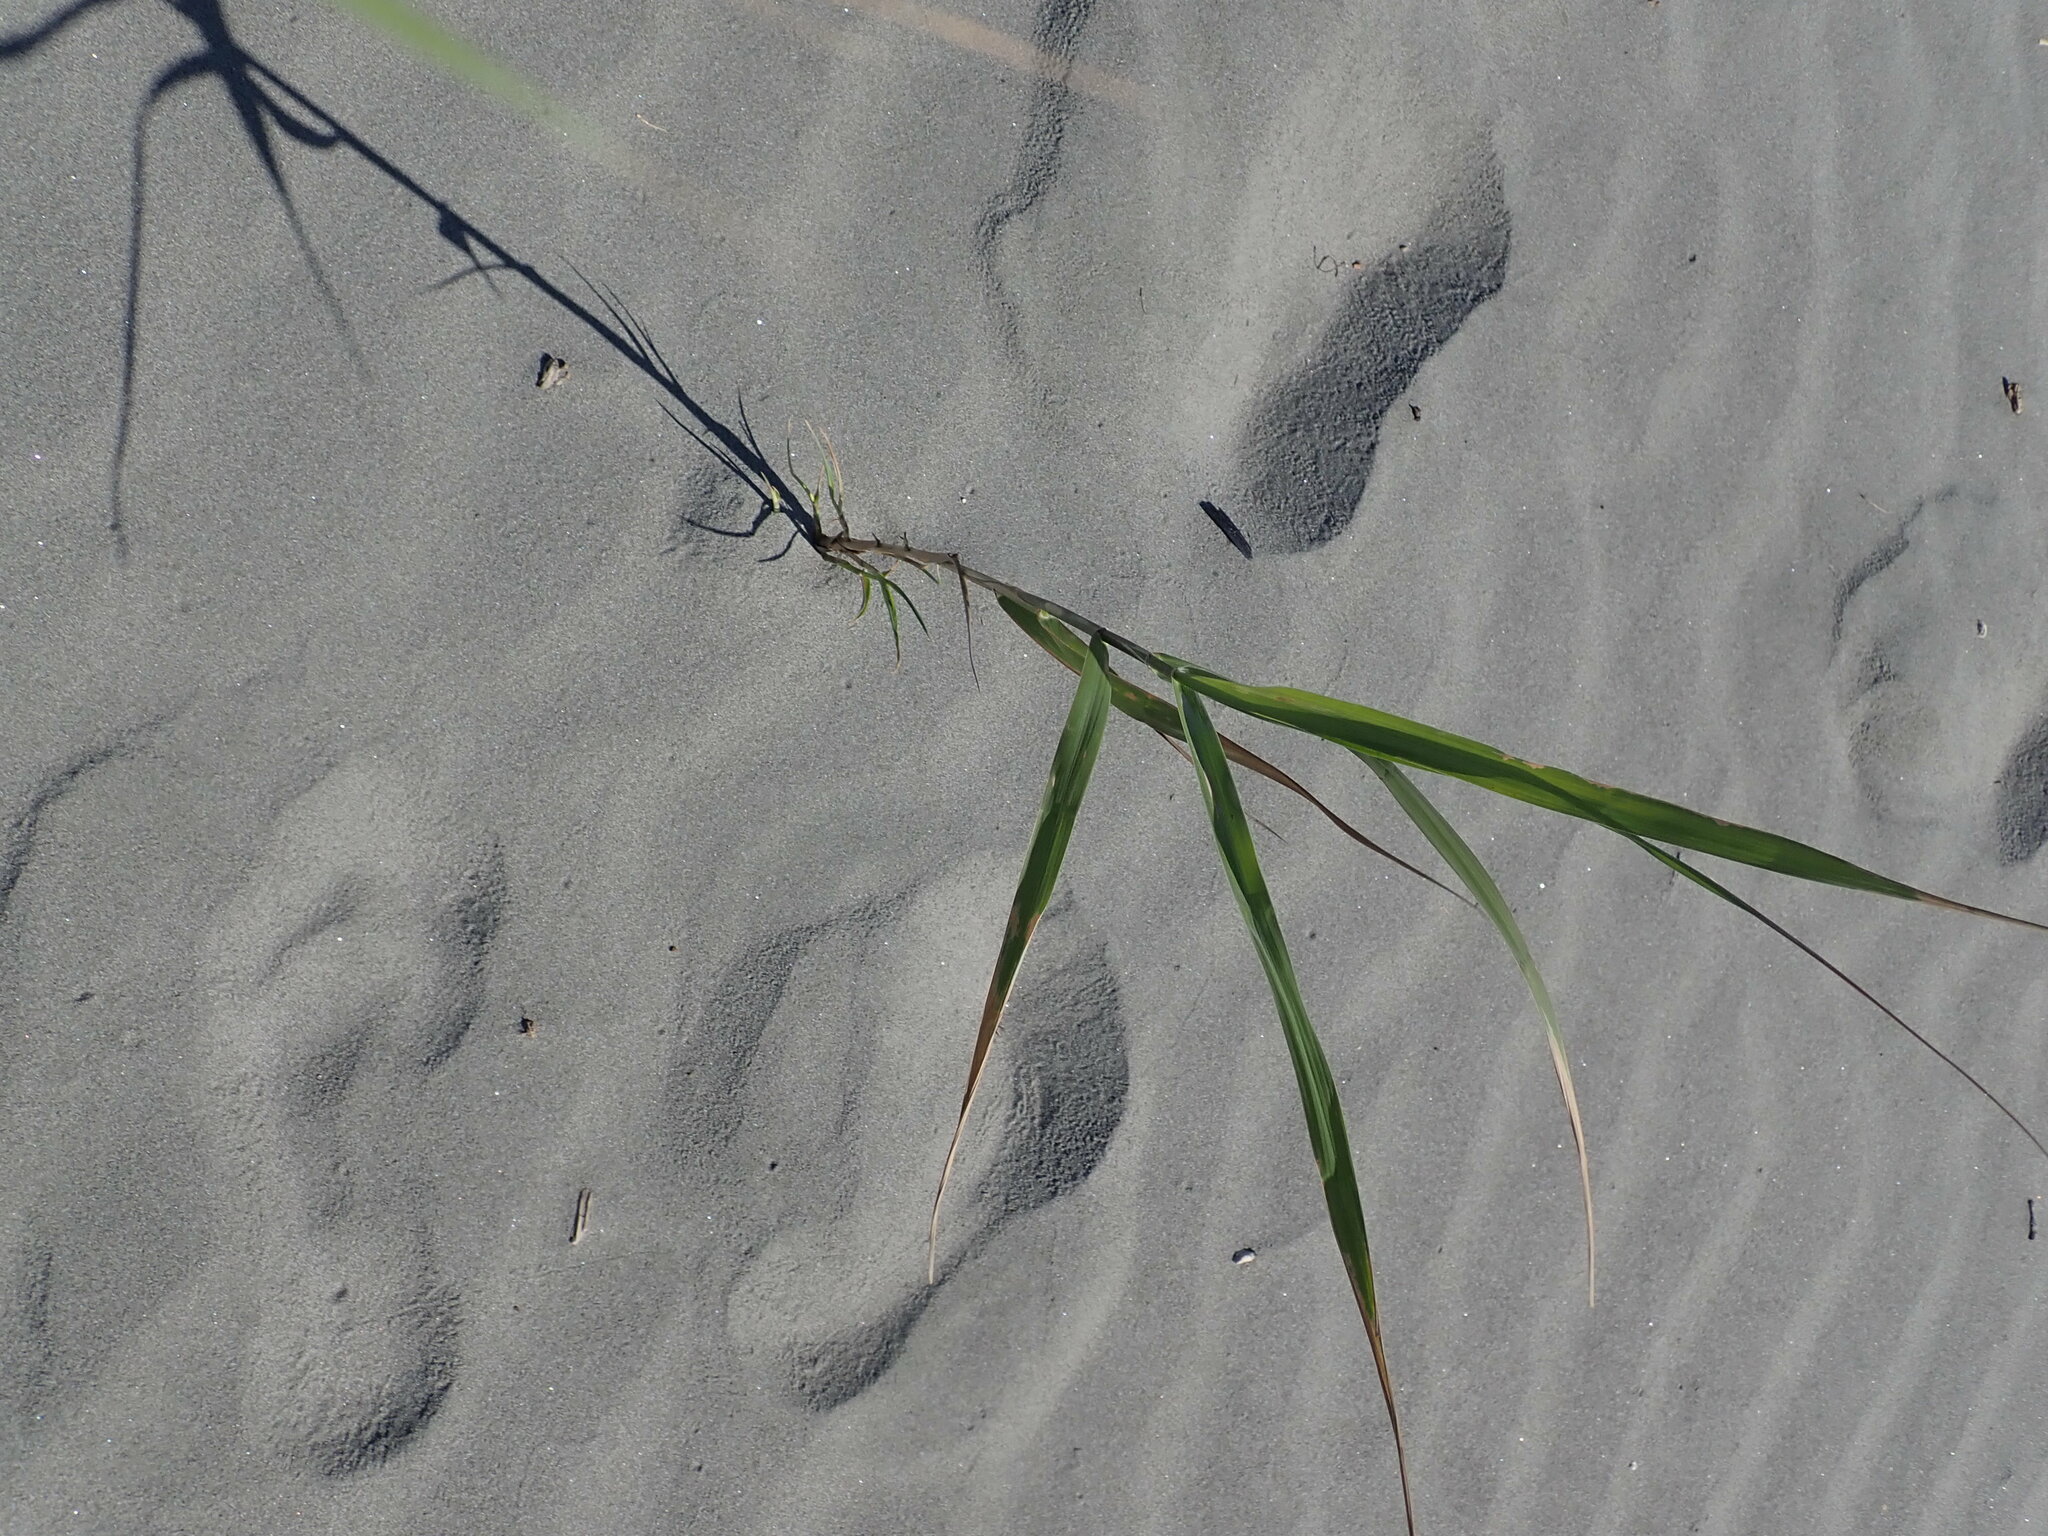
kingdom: Plantae
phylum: Tracheophyta
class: Liliopsida
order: Poales
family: Poaceae
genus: Phragmites
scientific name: Phragmites karka
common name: Tropical reed
